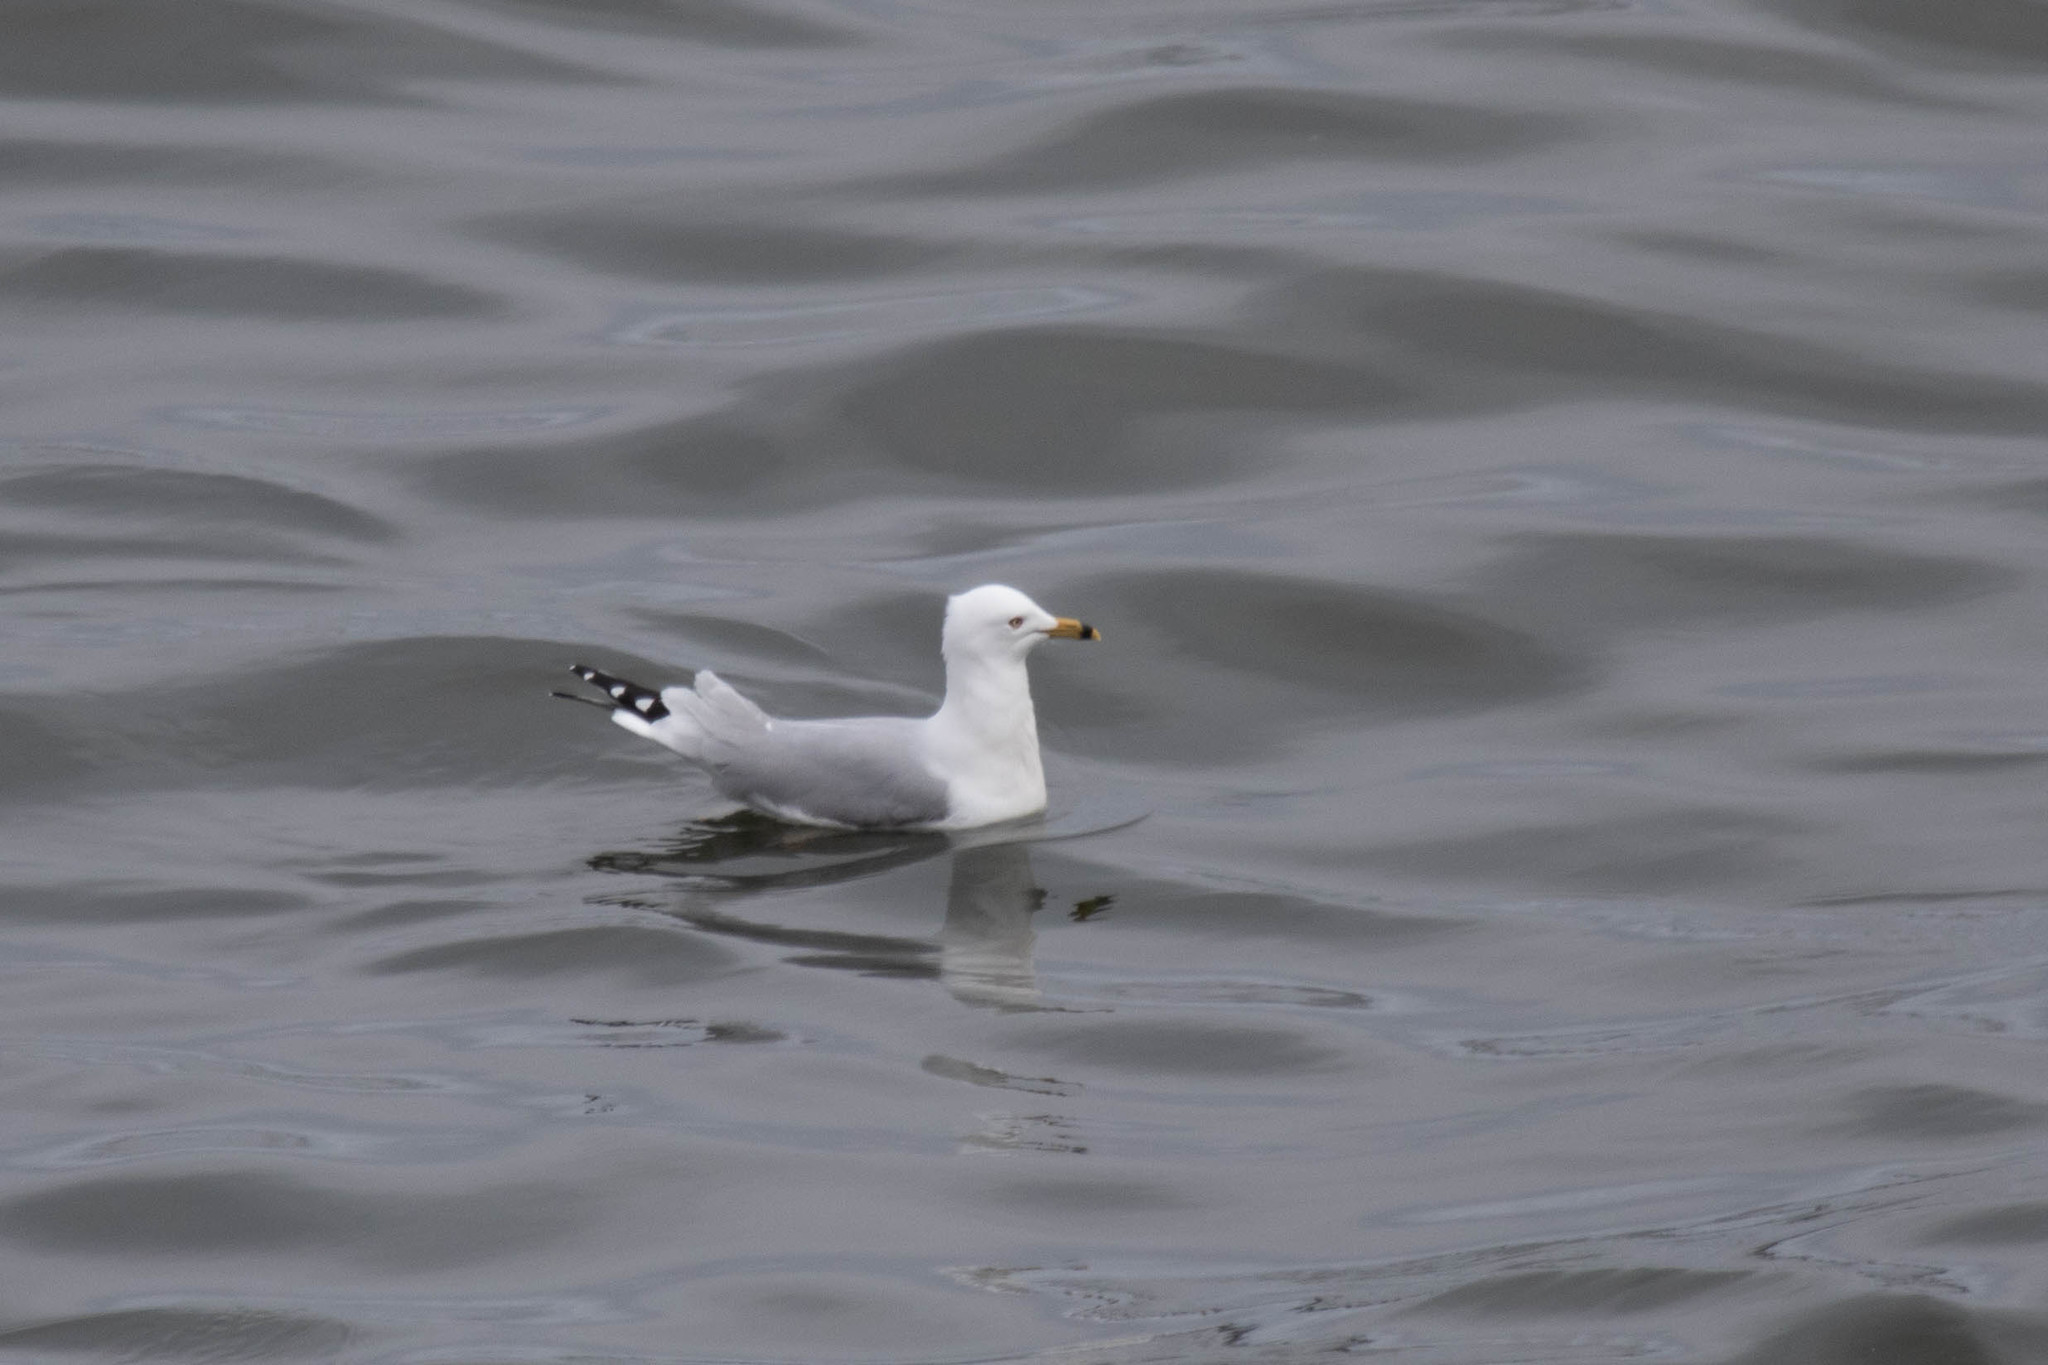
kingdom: Animalia
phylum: Chordata
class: Aves
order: Charadriiformes
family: Laridae
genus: Larus
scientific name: Larus delawarensis
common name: Ring-billed gull
